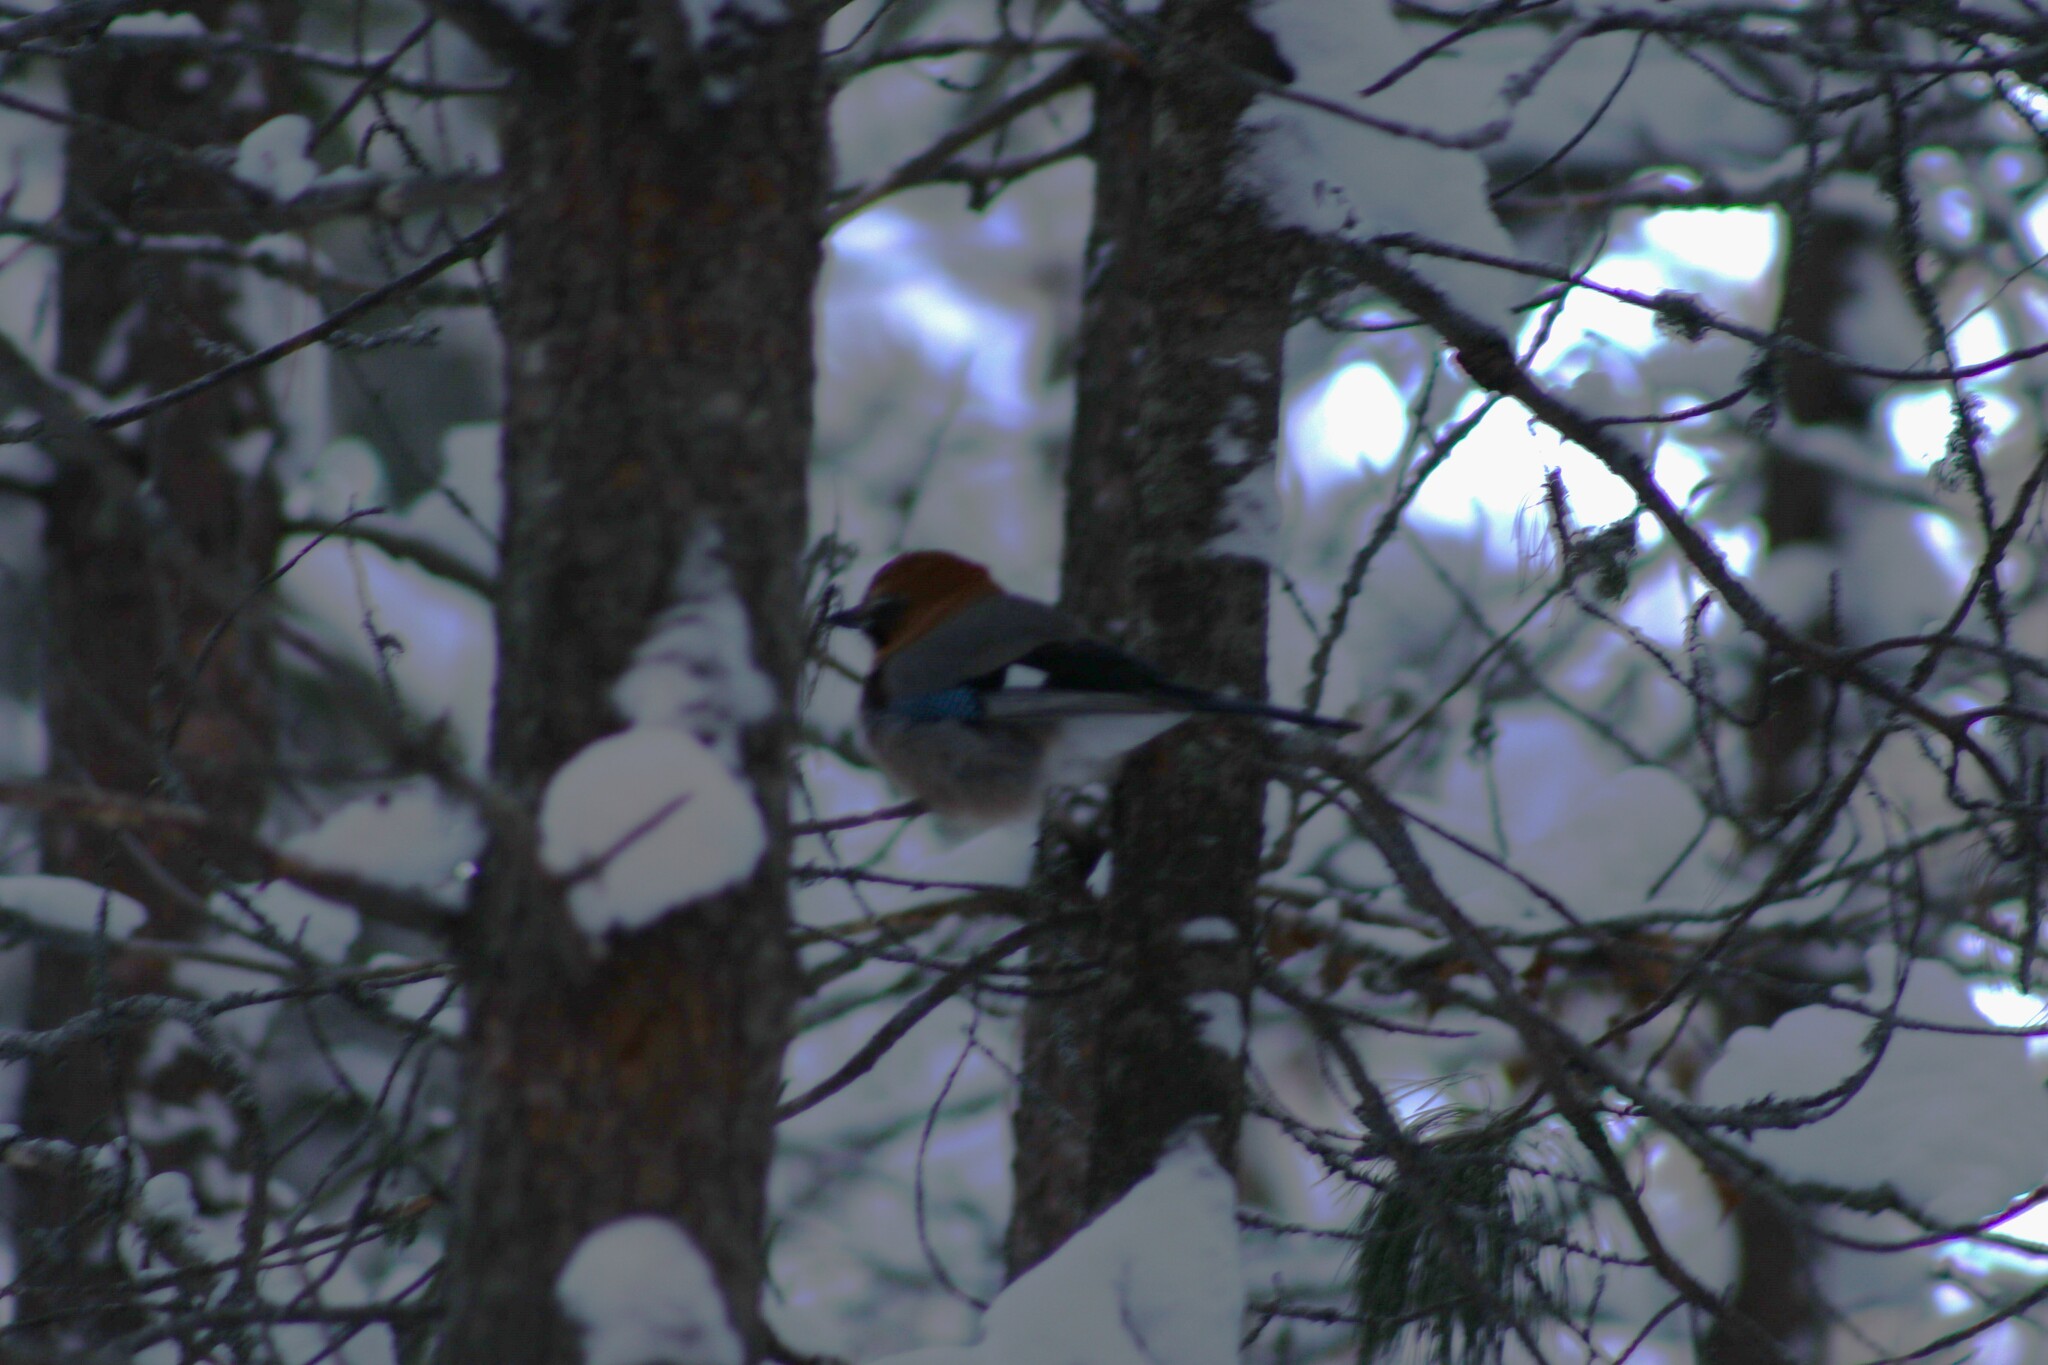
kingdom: Animalia
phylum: Chordata
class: Aves
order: Passeriformes
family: Corvidae
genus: Garrulus
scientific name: Garrulus glandarius
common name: Eurasian jay
